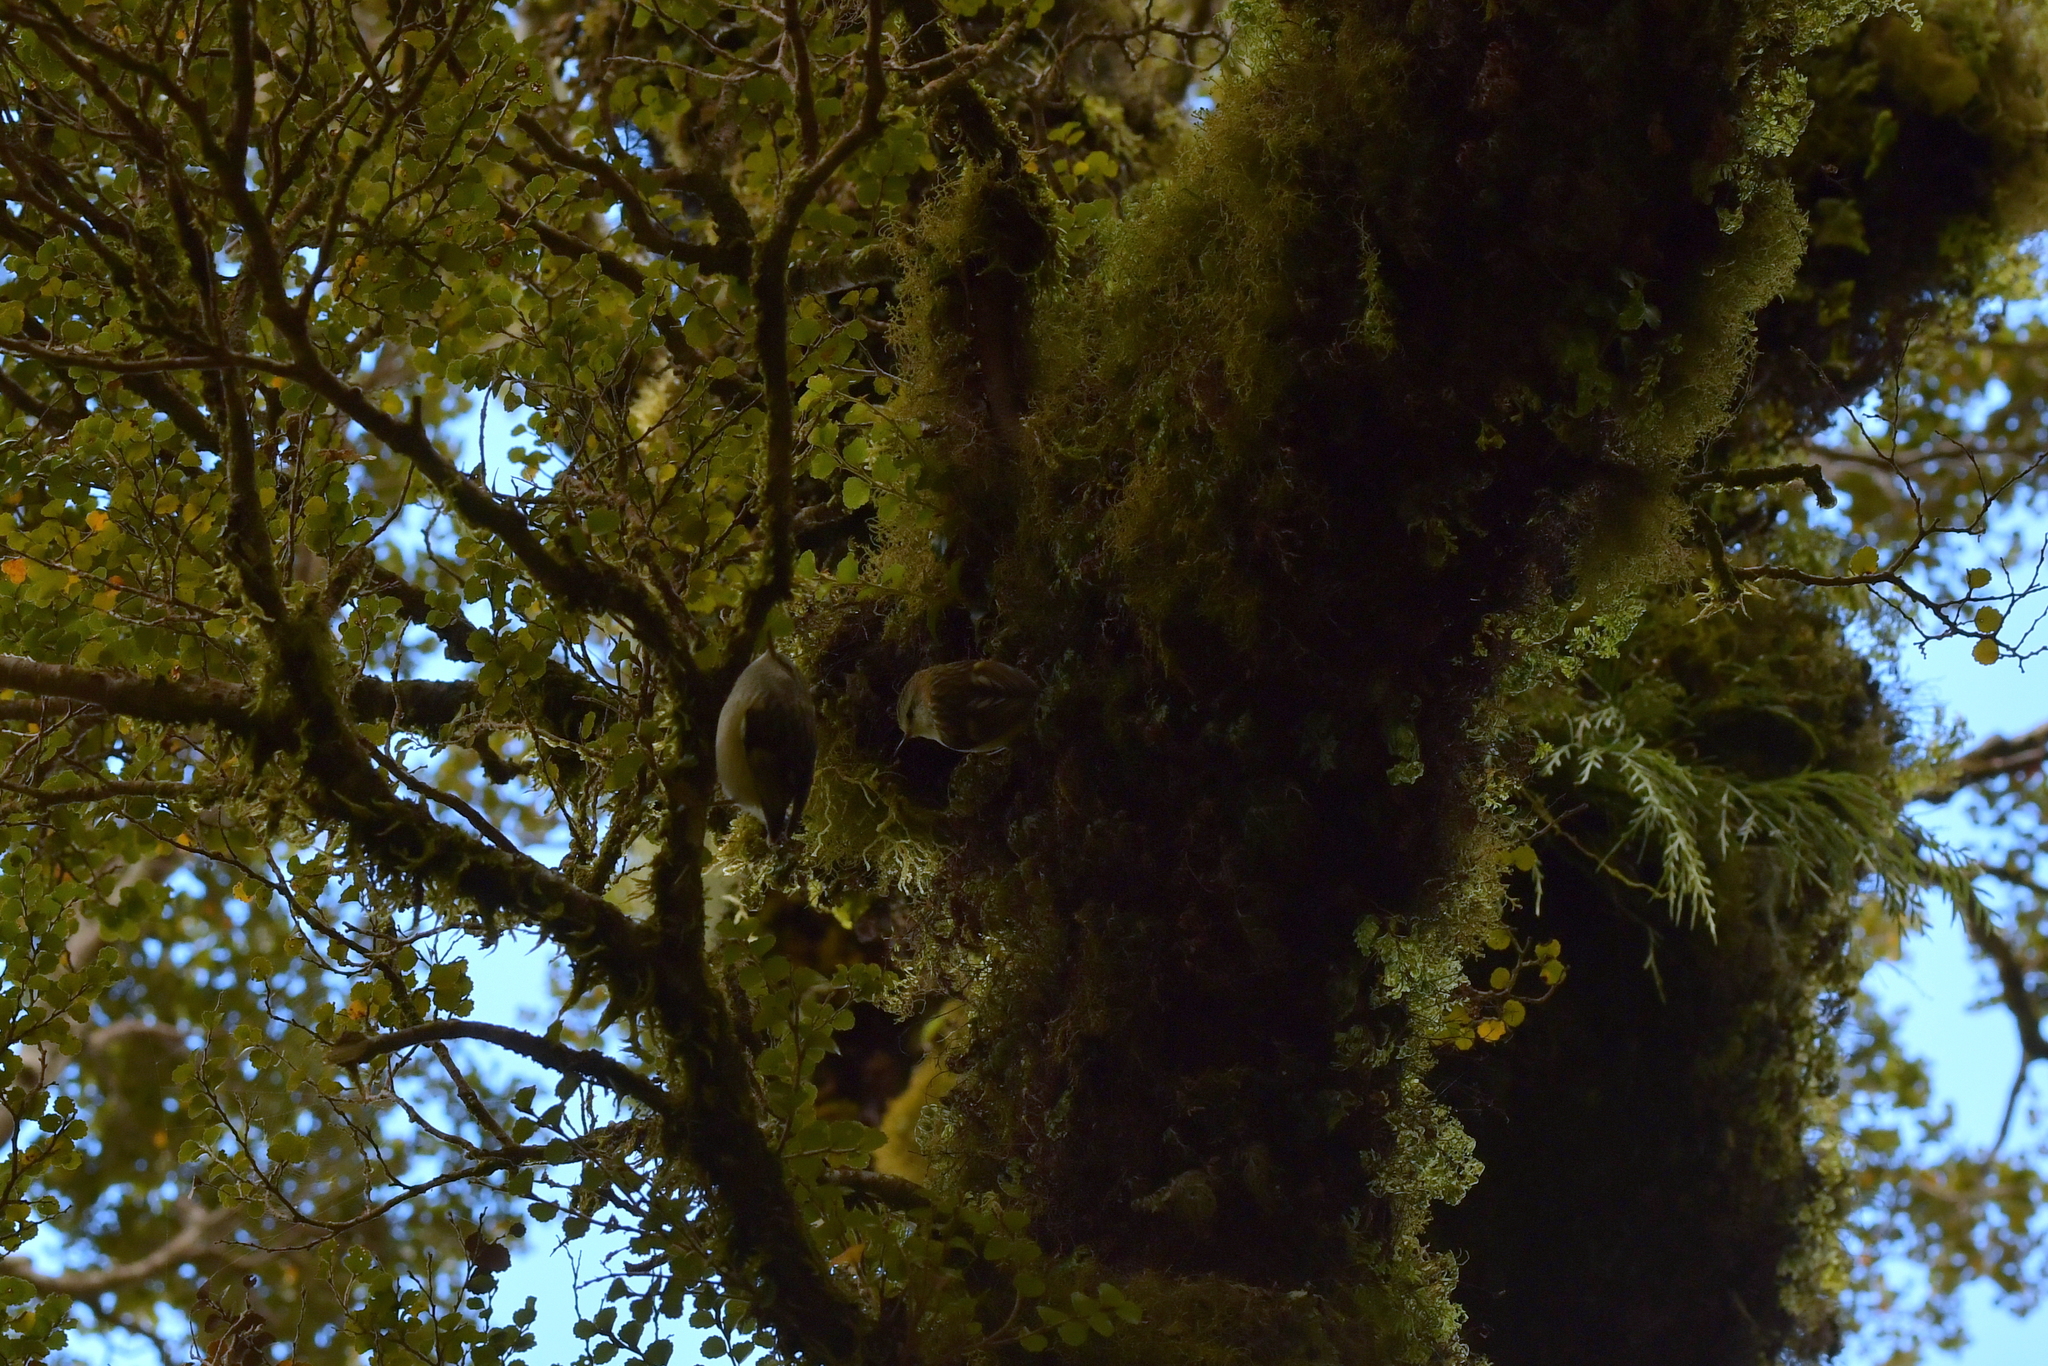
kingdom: Animalia
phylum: Chordata
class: Aves
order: Passeriformes
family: Acanthisittidae
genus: Acanthisitta
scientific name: Acanthisitta chloris
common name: Rifleman
